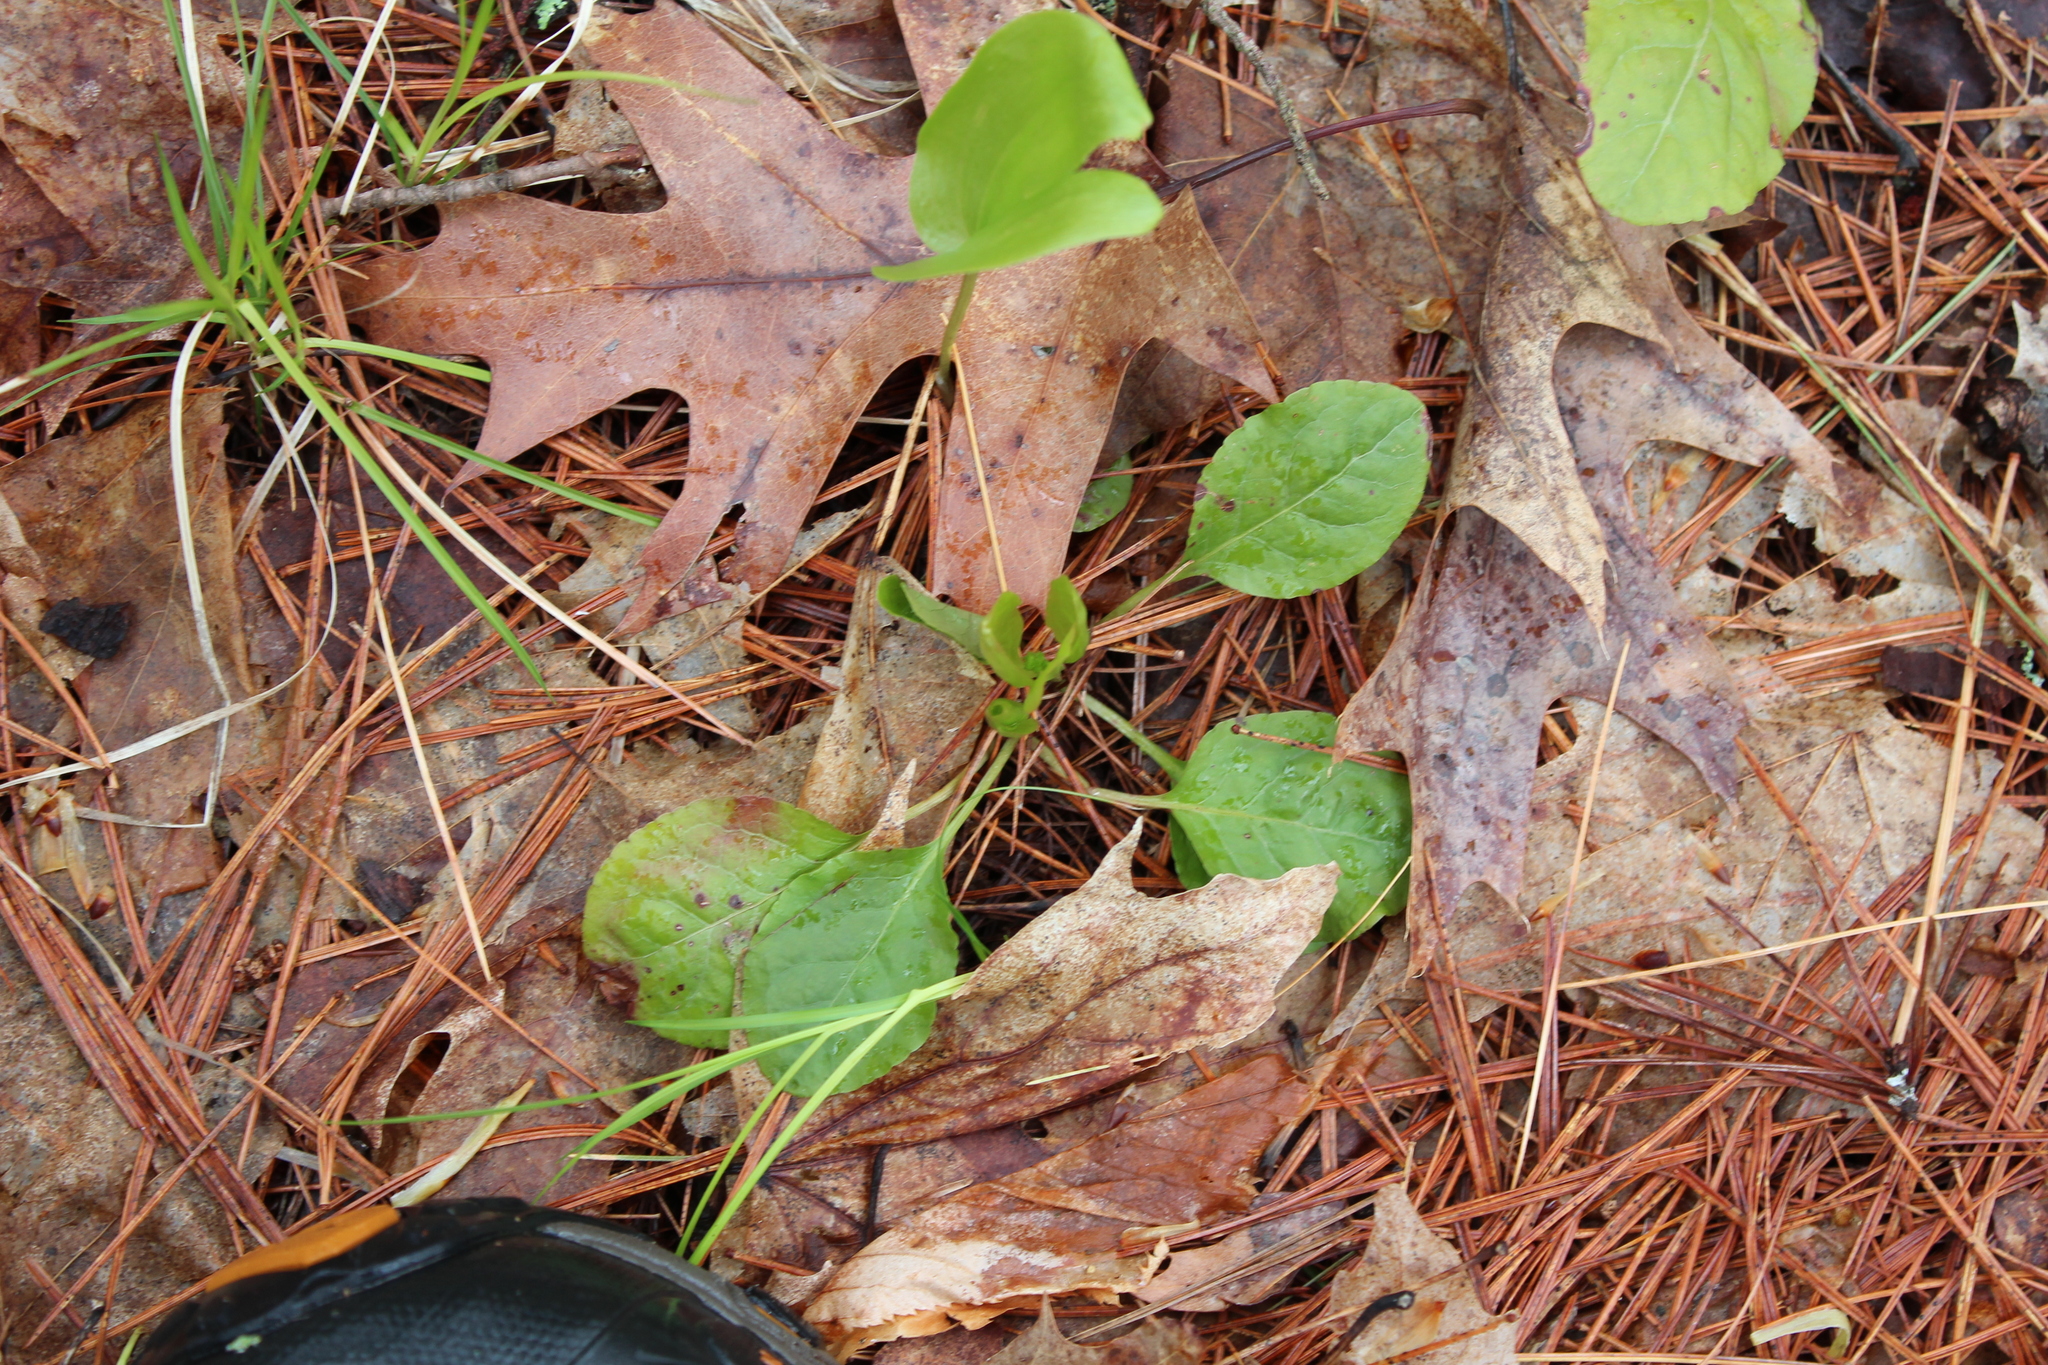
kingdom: Plantae
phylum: Tracheophyta
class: Magnoliopsida
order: Ericales
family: Ericaceae
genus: Pyrola
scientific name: Pyrola elliptica
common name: Shinleaf
